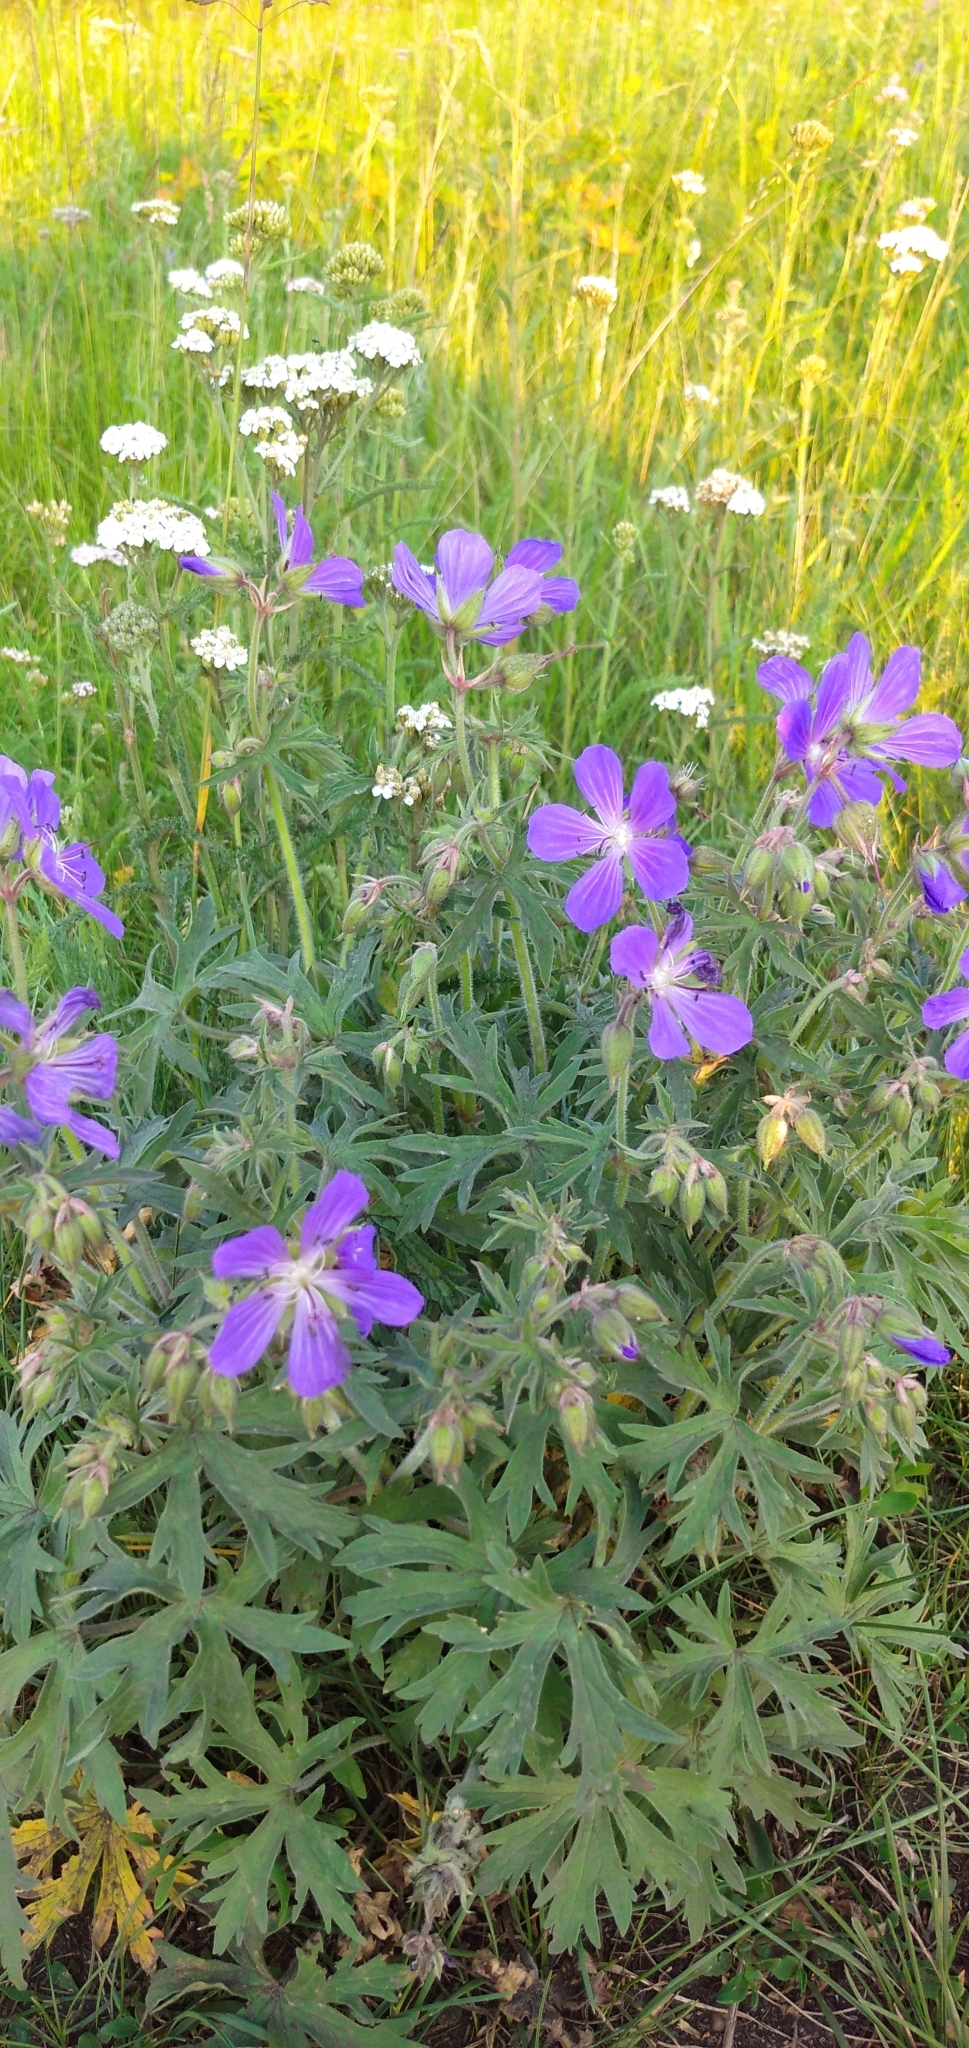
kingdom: Plantae
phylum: Tracheophyta
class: Magnoliopsida
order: Geraniales
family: Geraniaceae
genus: Geranium
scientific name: Geranium pratense
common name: Meadow crane's-bill
